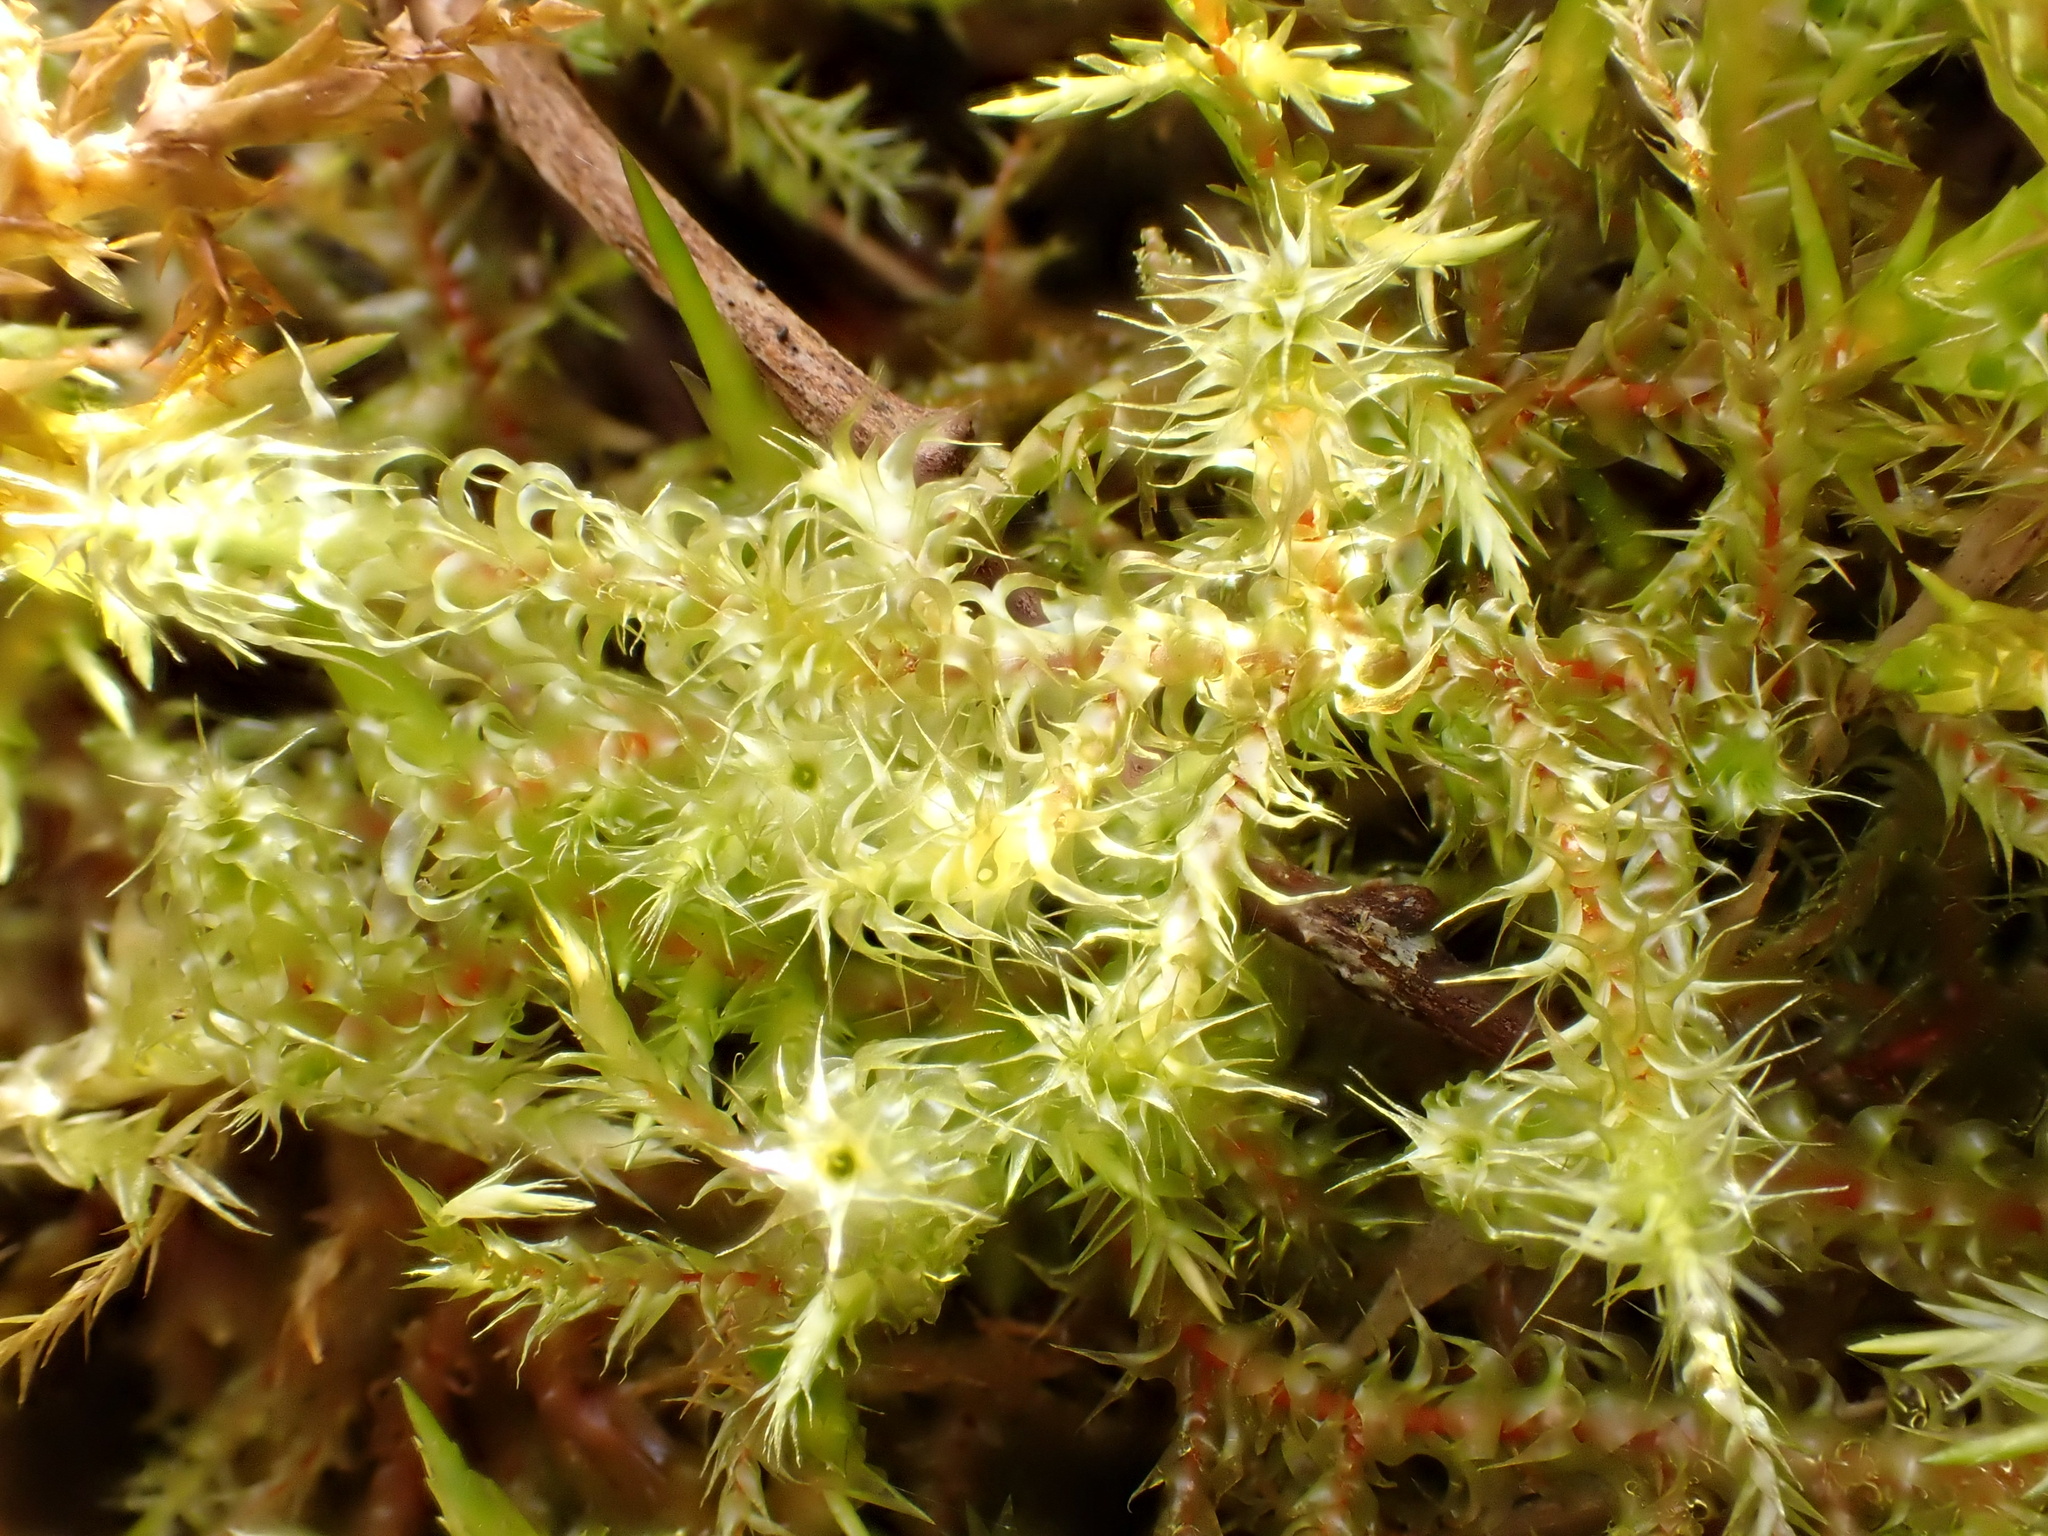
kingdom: Plantae
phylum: Bryophyta
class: Bryopsida
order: Hypnales
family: Hylocomiaceae
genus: Rhytidiadelphus
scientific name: Rhytidiadelphus squarrosus
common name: Springy turf-moss
